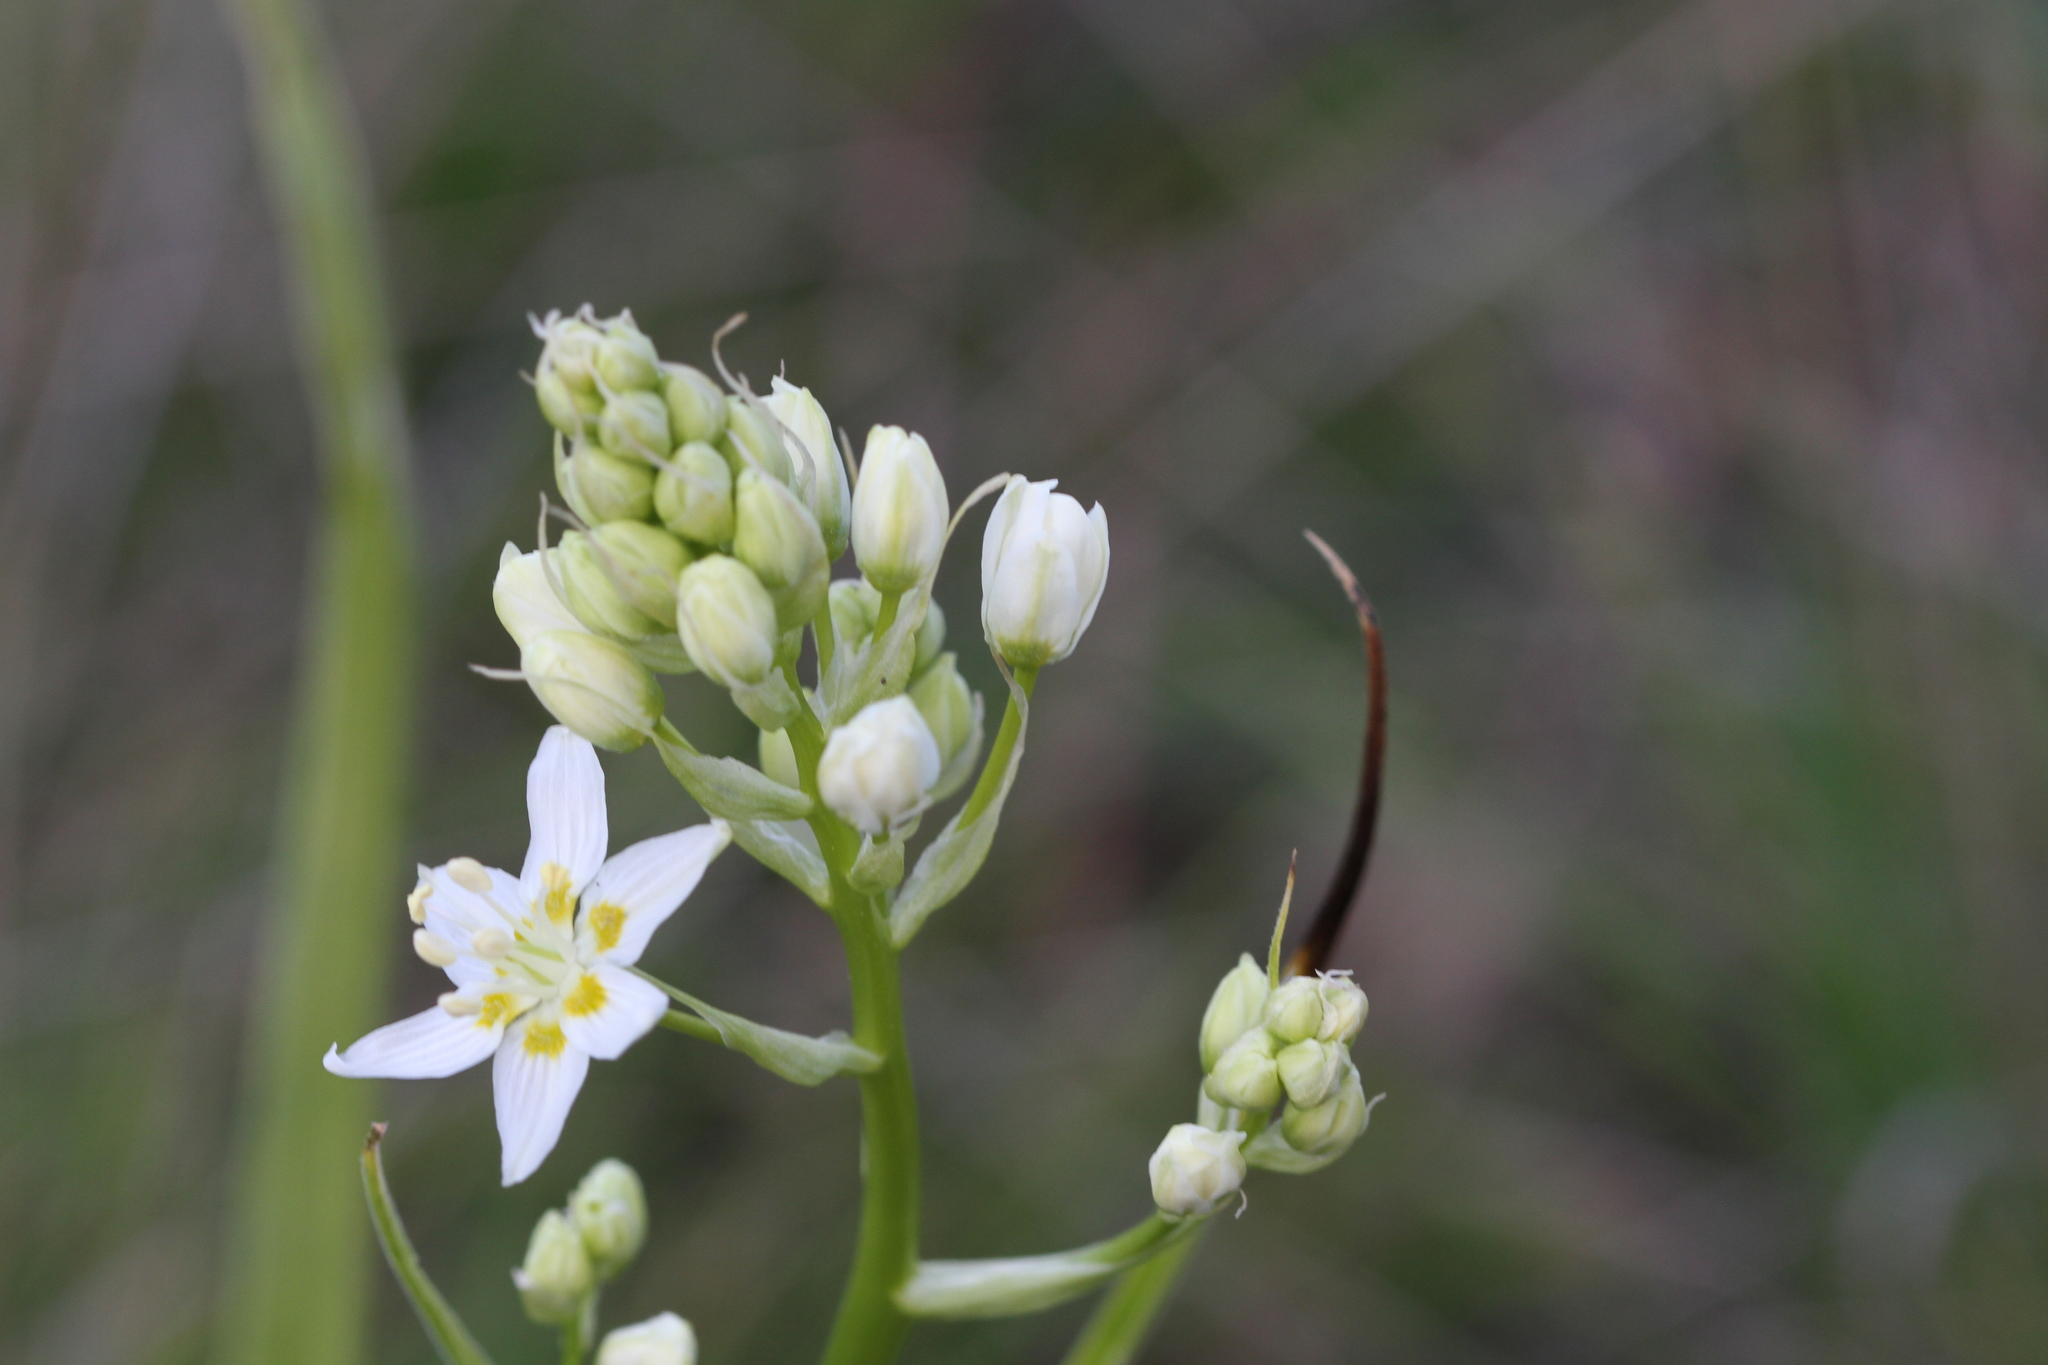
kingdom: Plantae
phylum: Tracheophyta
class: Liliopsida
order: Liliales
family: Melanthiaceae
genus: Toxicoscordion
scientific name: Toxicoscordion fremontii
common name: Fremont's death camas
